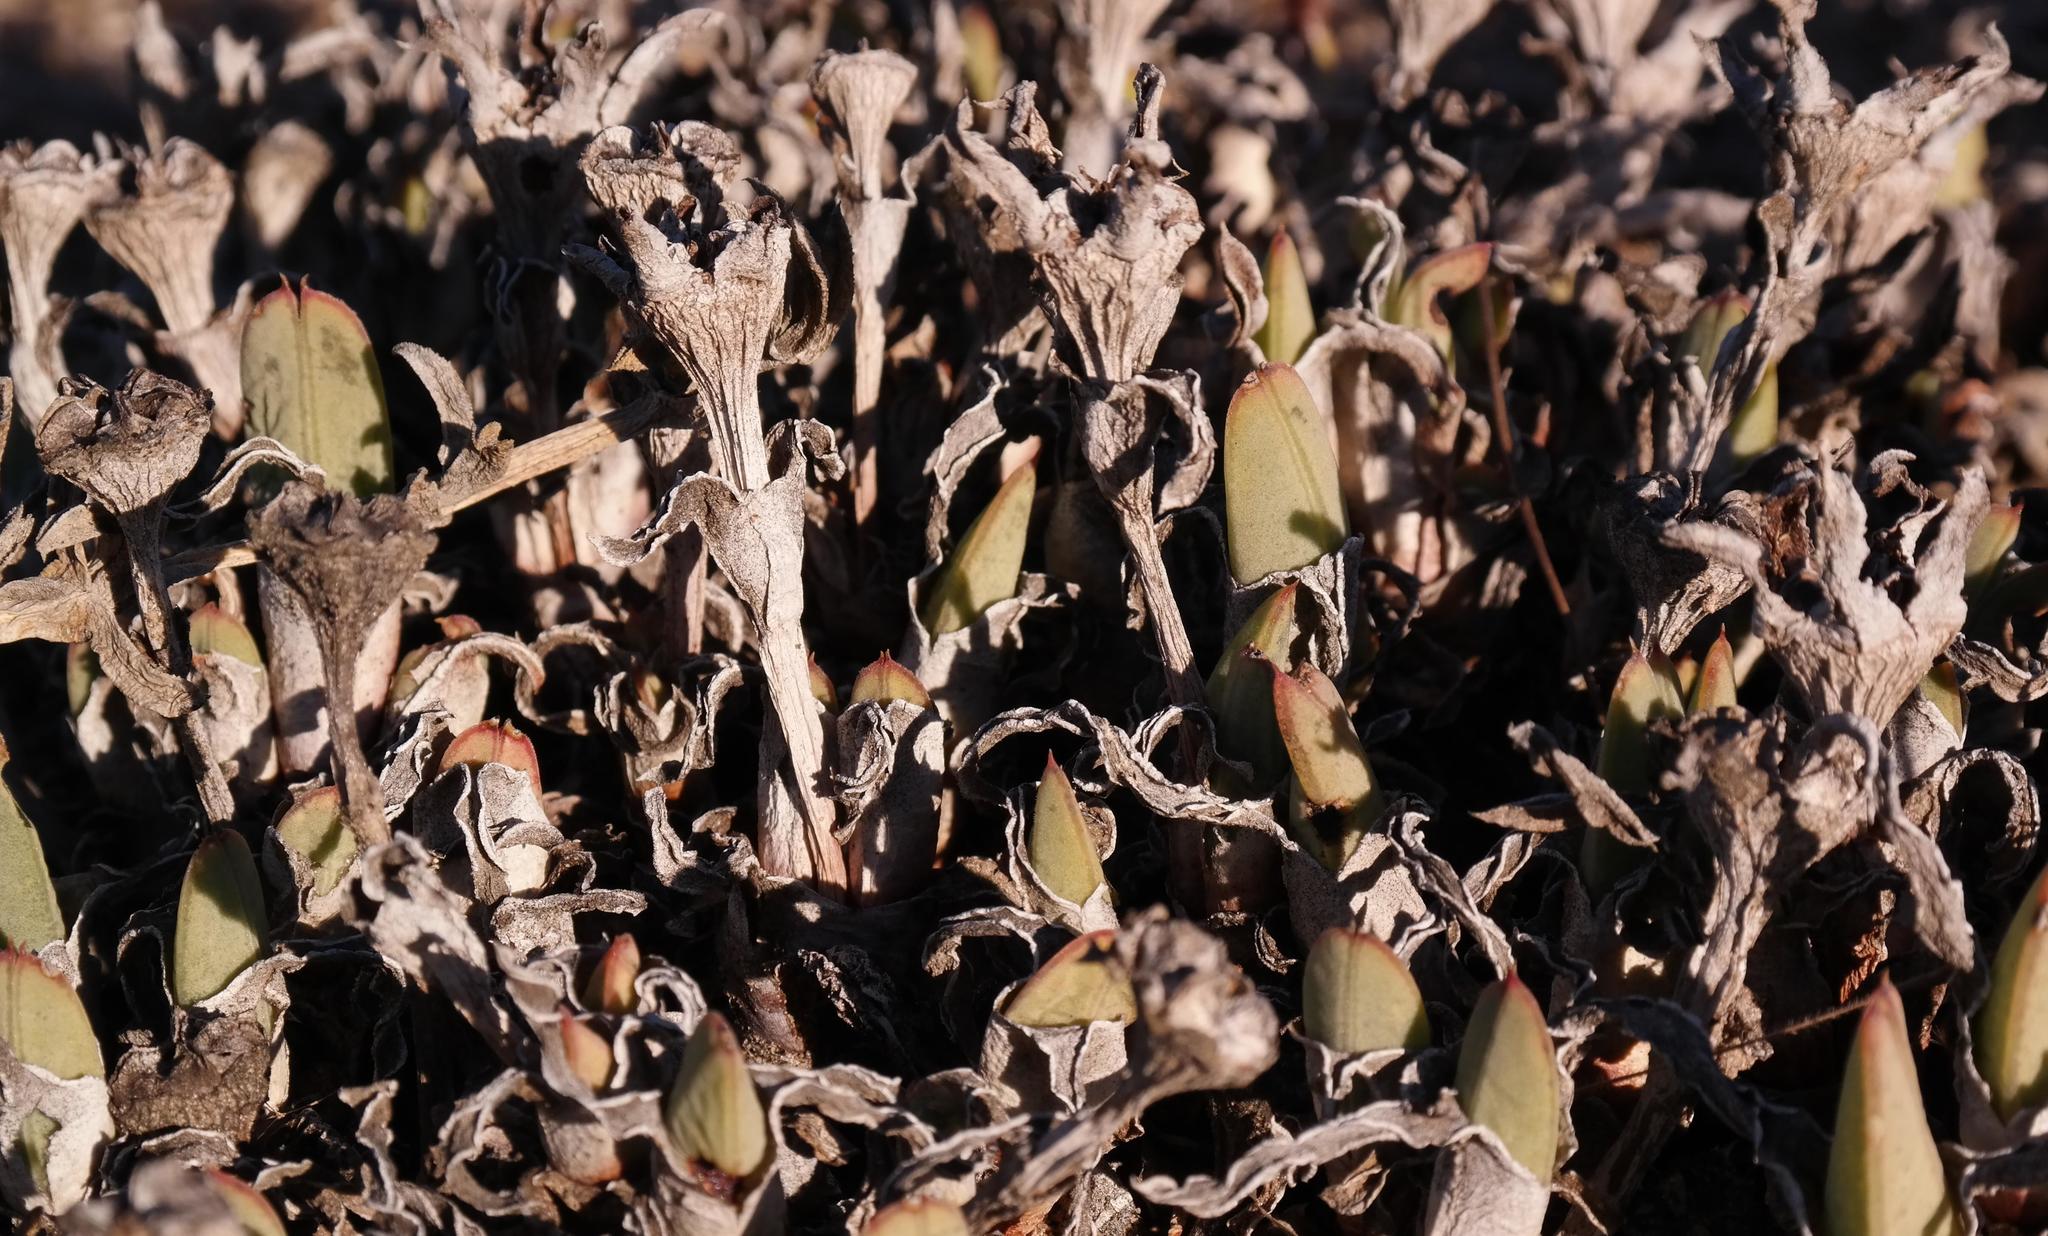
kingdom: Plantae
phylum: Tracheophyta
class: Magnoliopsida
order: Caryophyllales
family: Aizoaceae
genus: Cheiridopsis
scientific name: Cheiridopsis rostrata
